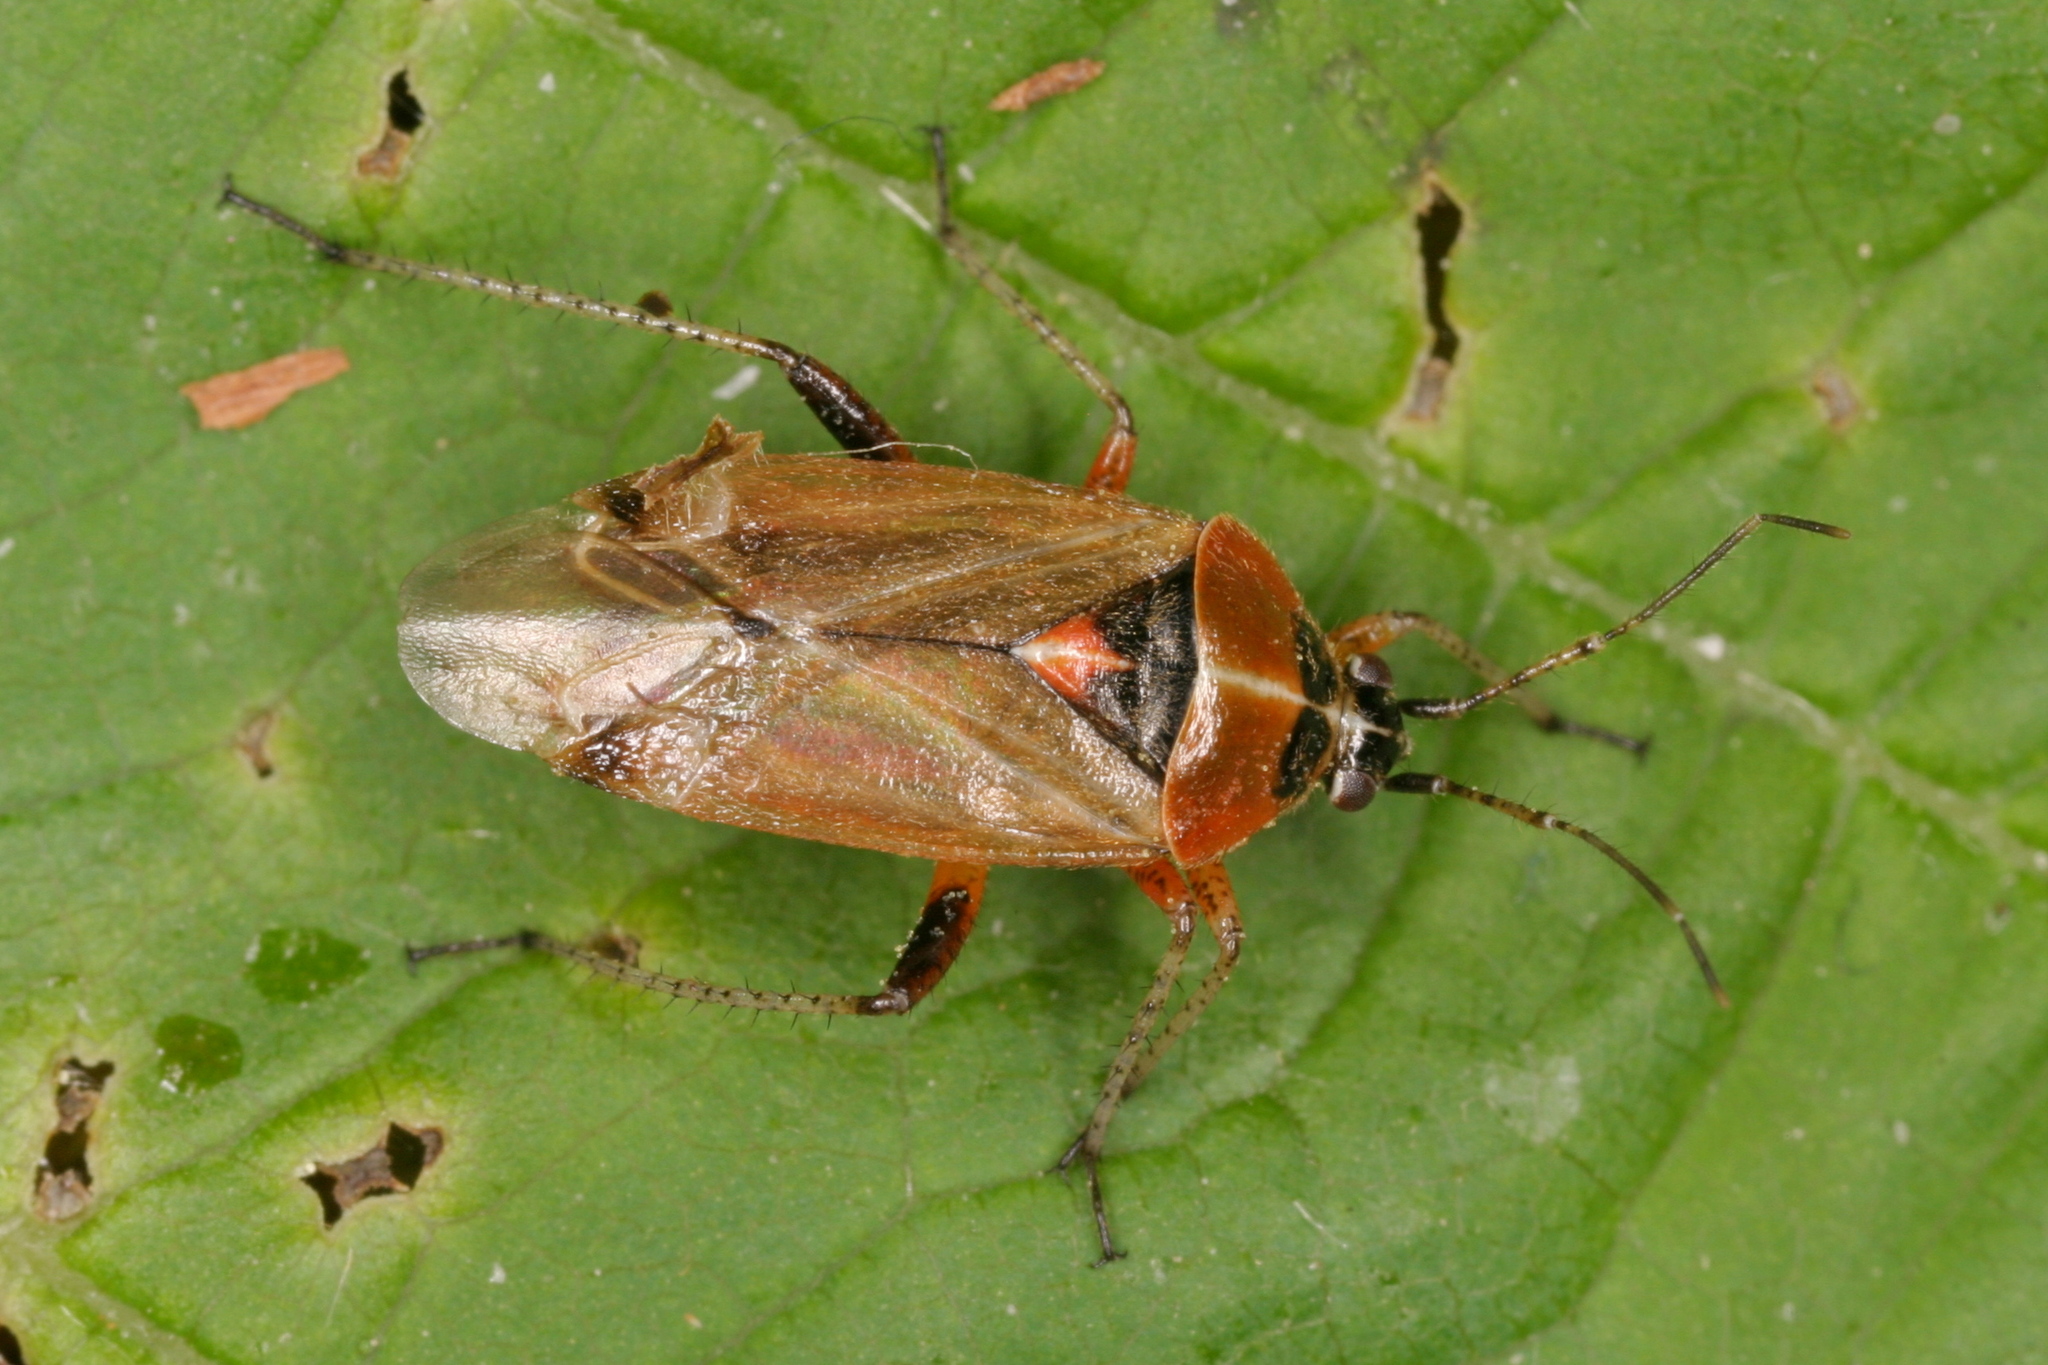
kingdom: Animalia
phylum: Arthropoda
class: Insecta
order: Hemiptera
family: Miridae
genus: Harpocera
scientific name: Harpocera thoracica
